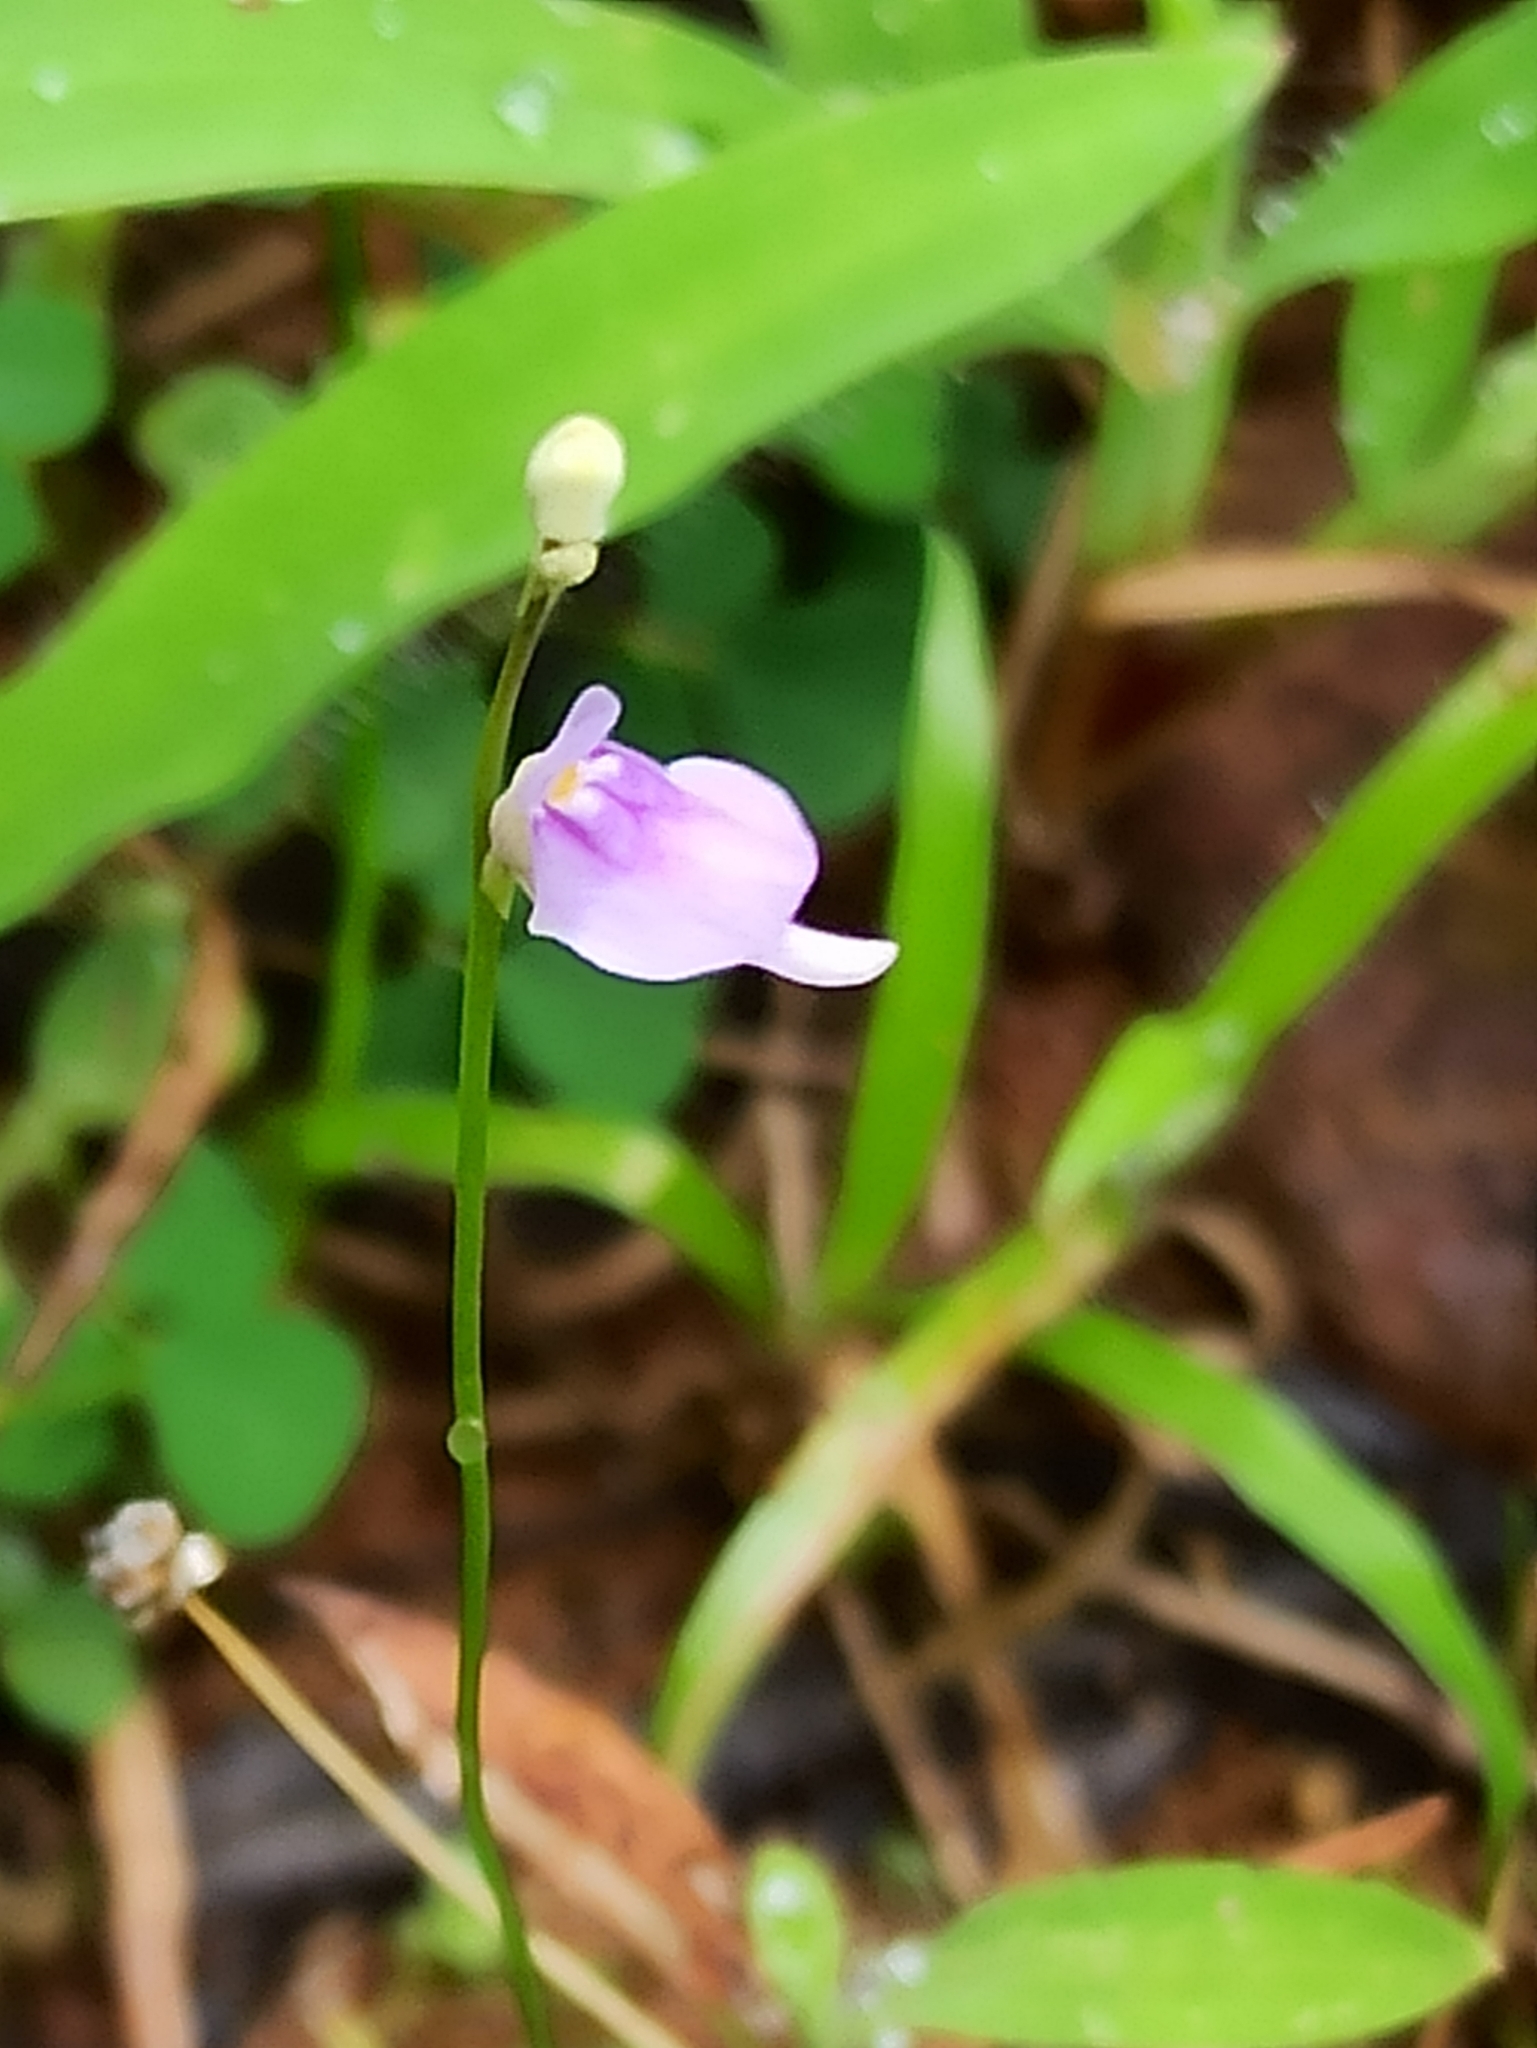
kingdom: Plantae
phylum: Tracheophyta
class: Magnoliopsida
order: Lamiales
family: Lentibulariaceae
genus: Utricularia
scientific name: Utricularia caerulea
